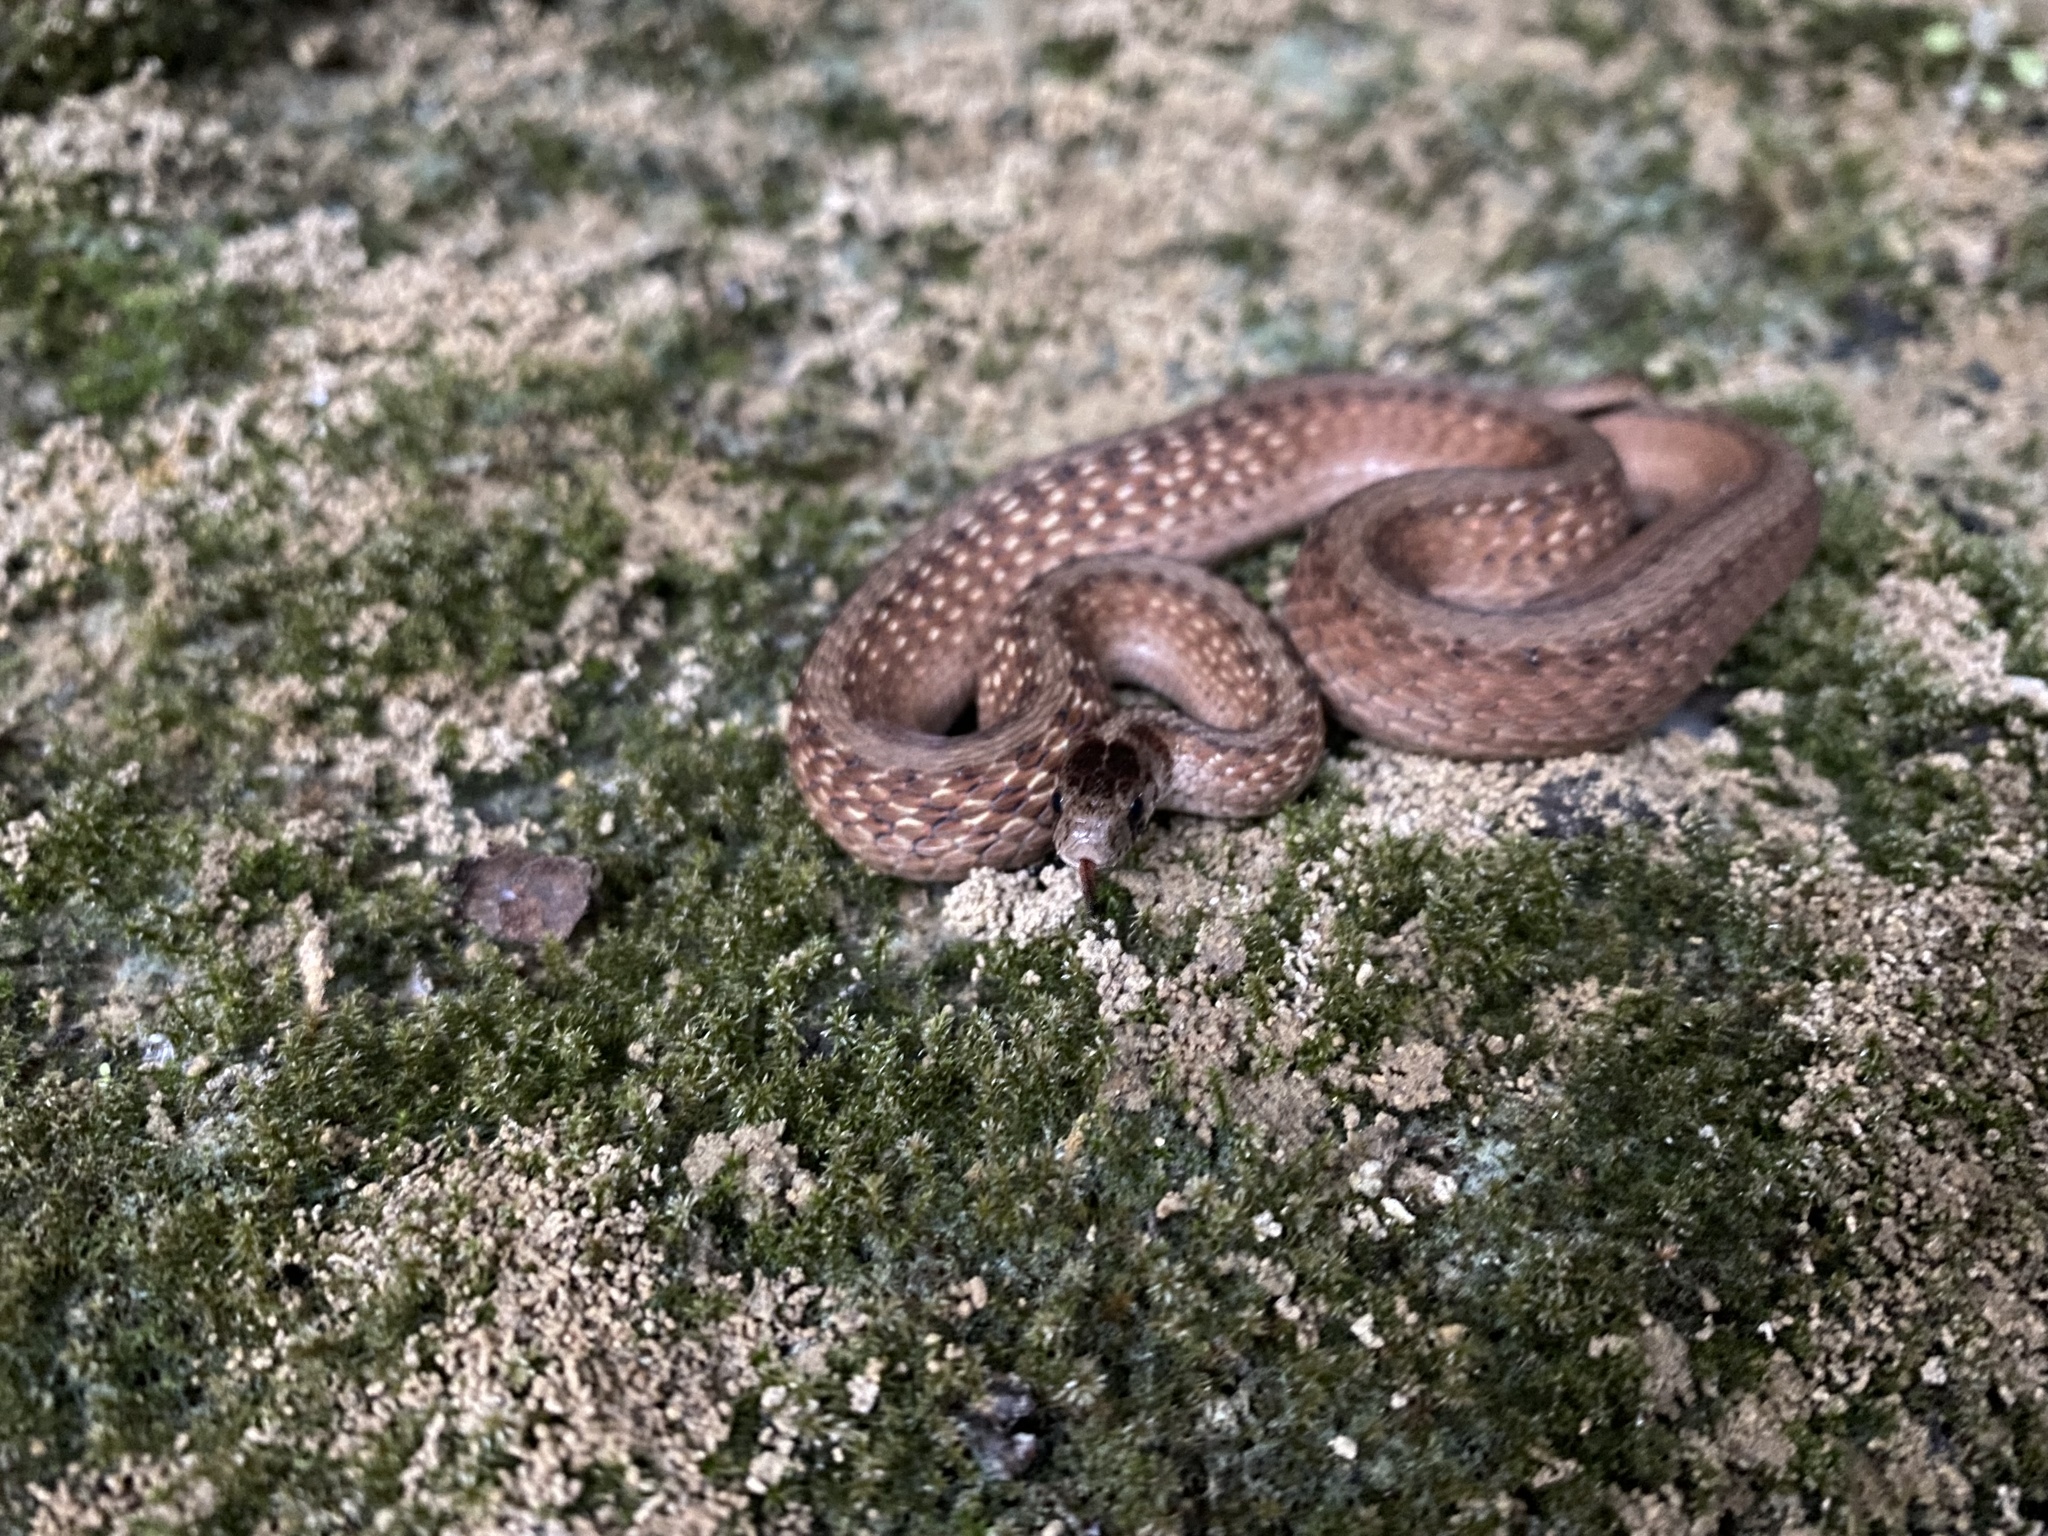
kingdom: Animalia
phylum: Chordata
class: Squamata
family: Colubridae
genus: Storeria
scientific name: Storeria dekayi
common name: (dekay’s) brown snake
